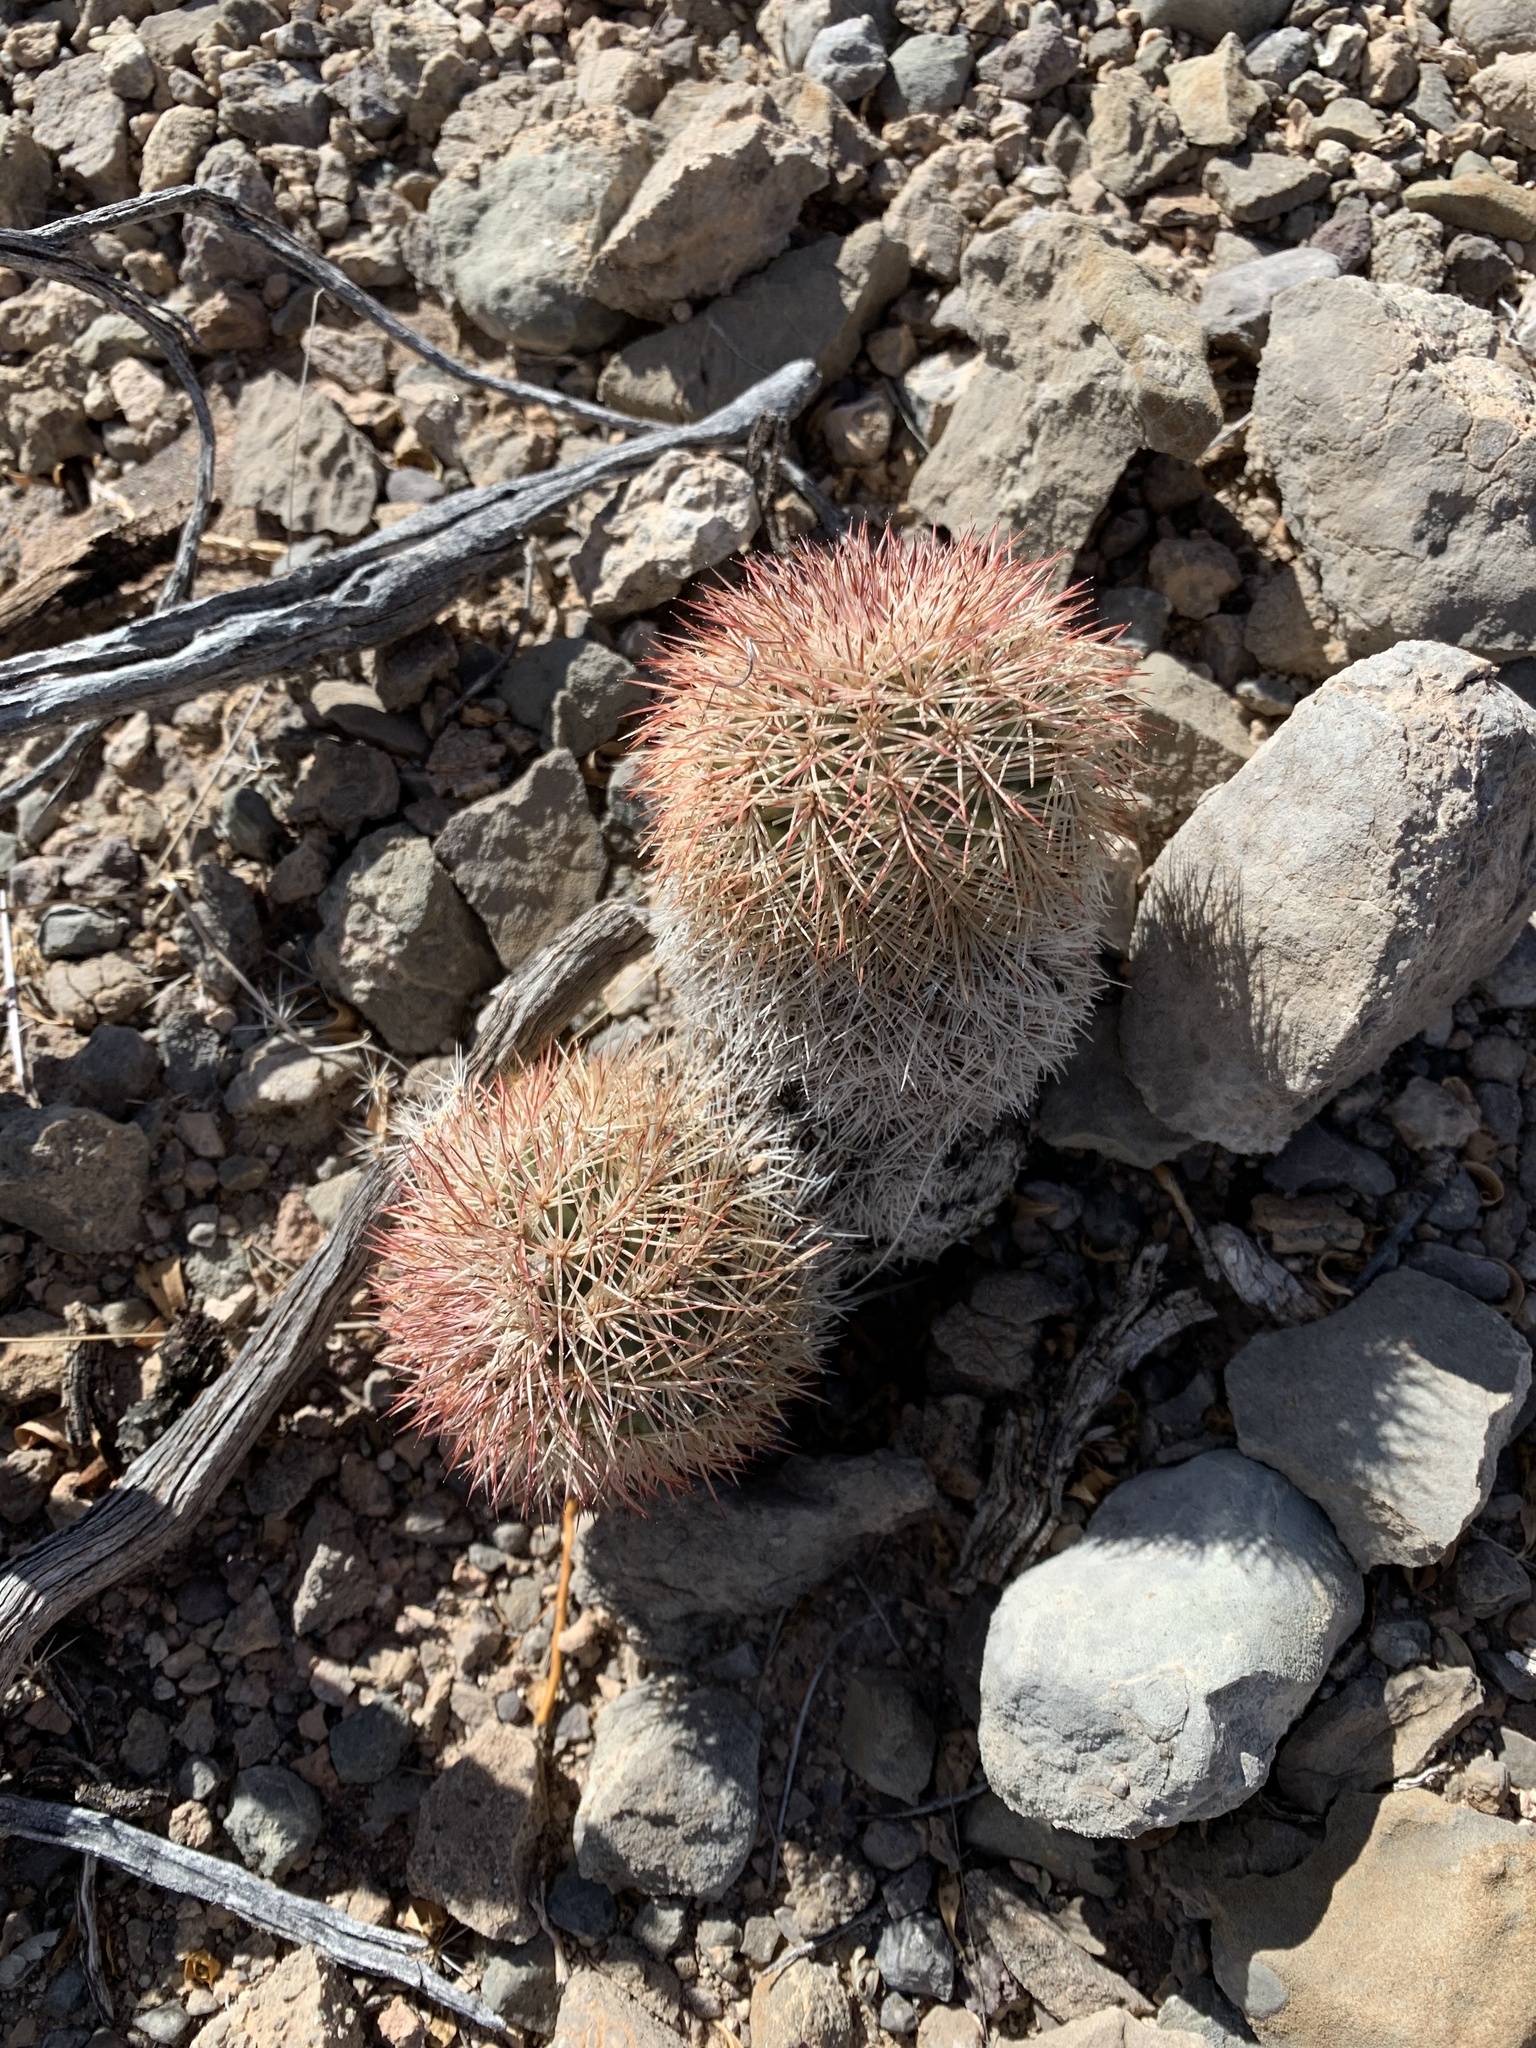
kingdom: Plantae
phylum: Tracheophyta
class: Magnoliopsida
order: Caryophyllales
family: Cactaceae
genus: Echinocereus
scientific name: Echinocereus dasyacanthus
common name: Spiny hedgehog cactus
